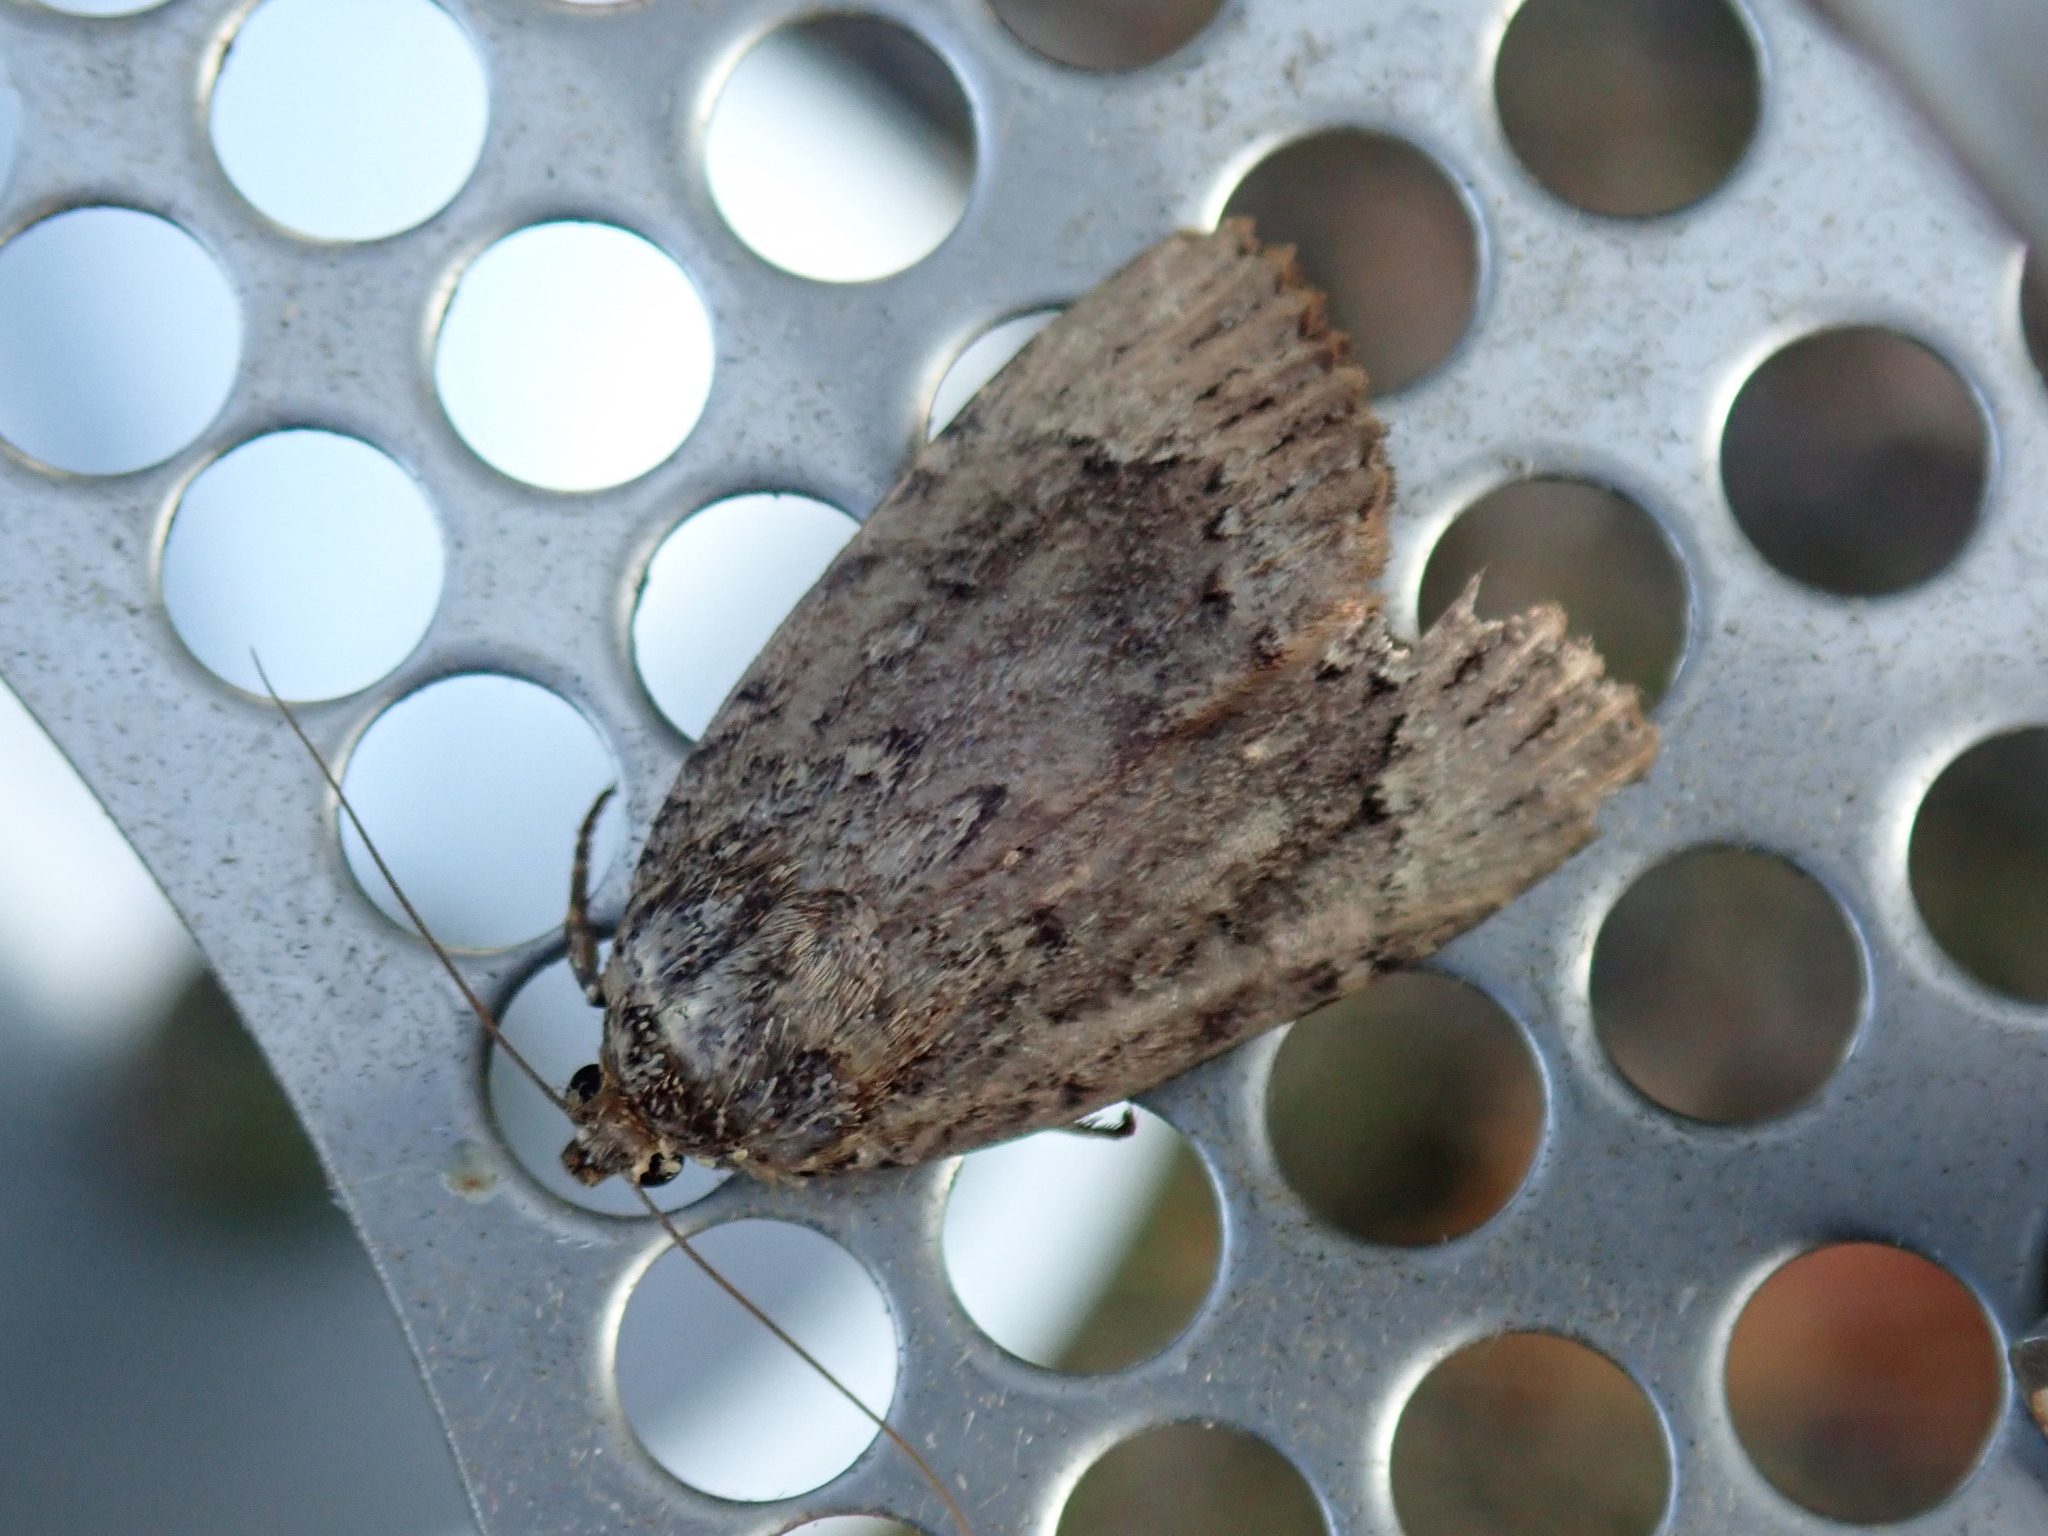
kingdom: Animalia
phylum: Arthropoda
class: Insecta
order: Lepidoptera
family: Noctuidae
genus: Amphipyra
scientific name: Amphipyra pyramidoides
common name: American copper underwing
